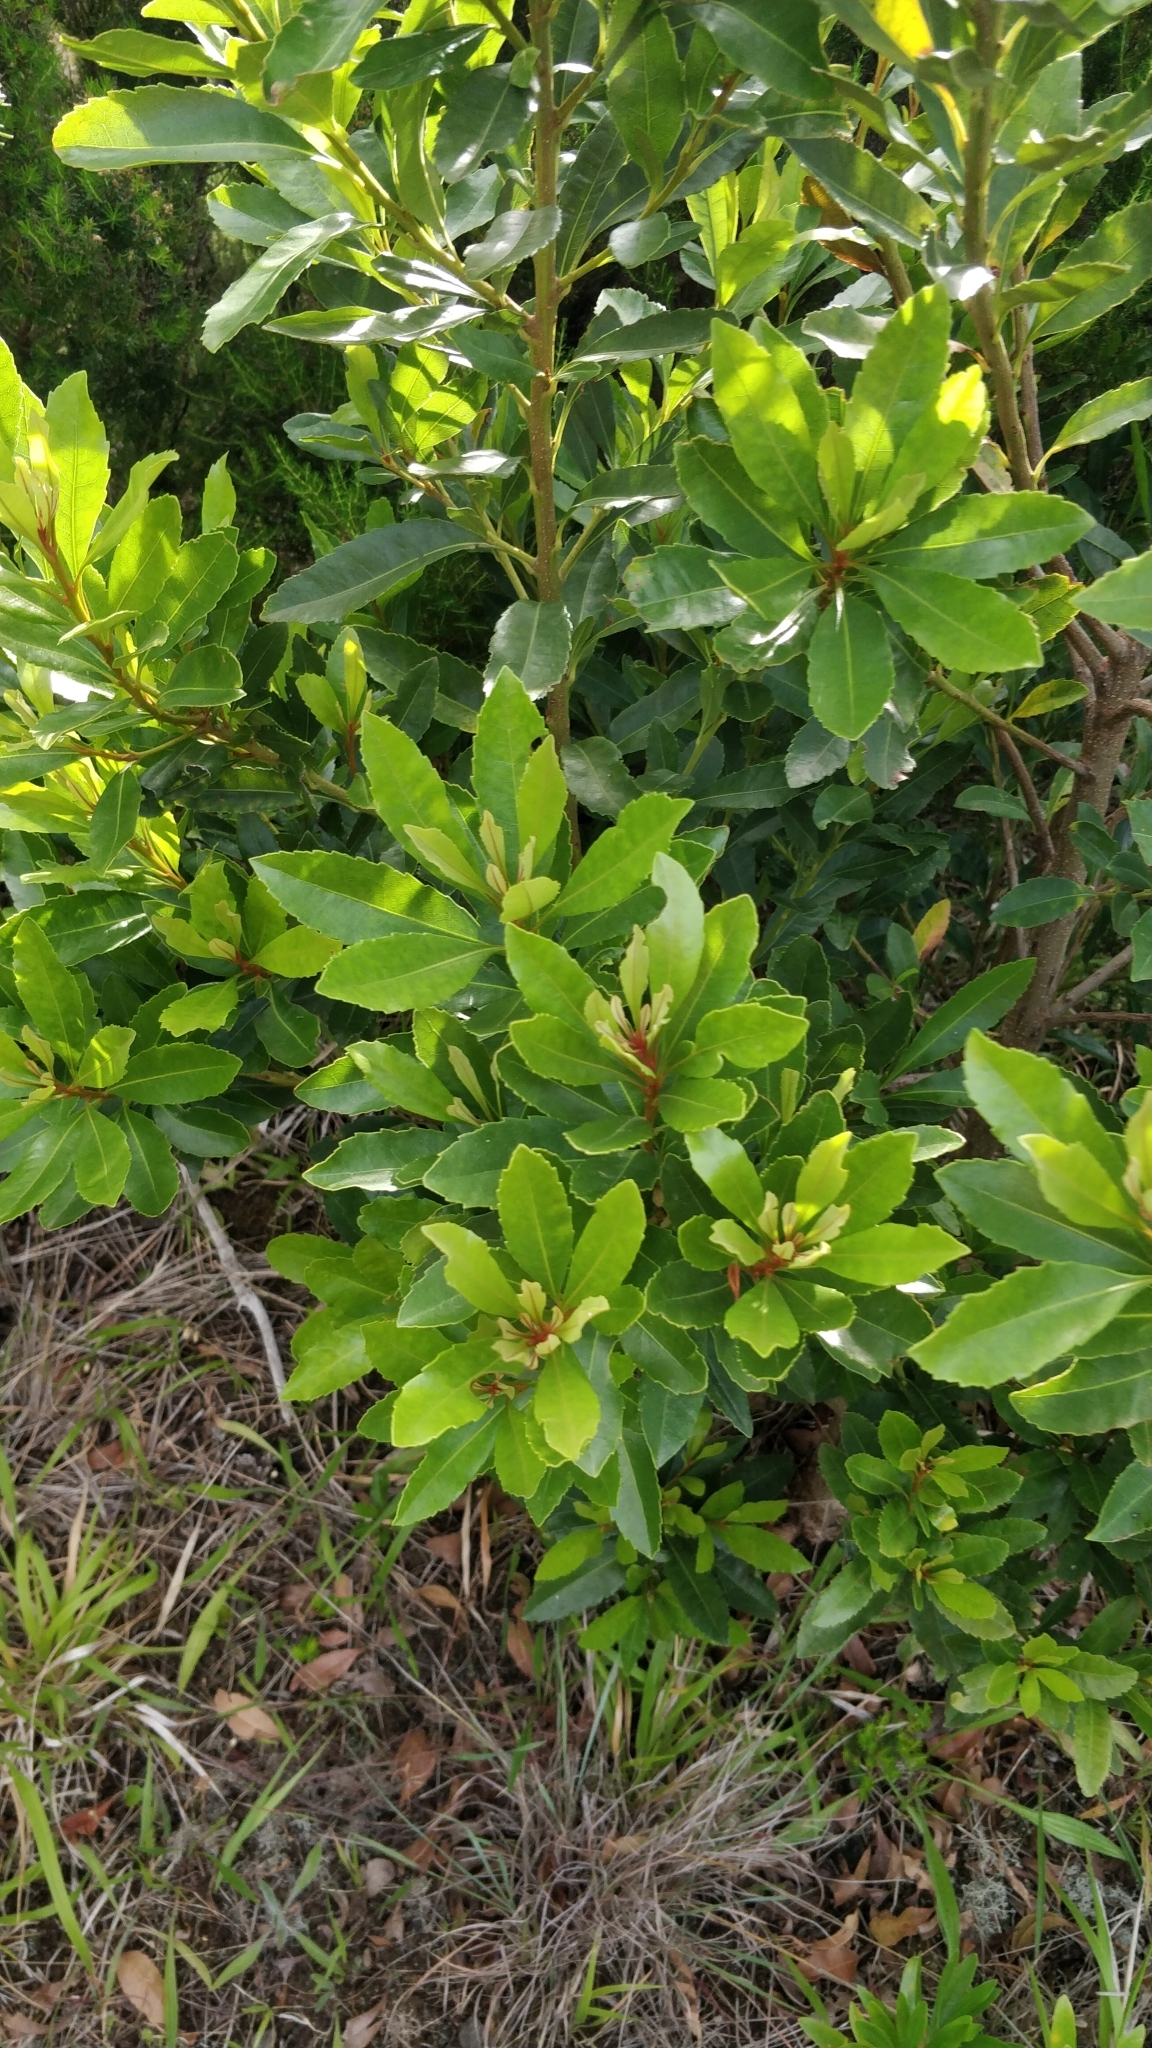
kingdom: Plantae
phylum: Tracheophyta
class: Magnoliopsida
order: Fagales
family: Myricaceae
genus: Morella
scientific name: Morella faya
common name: Firetree
